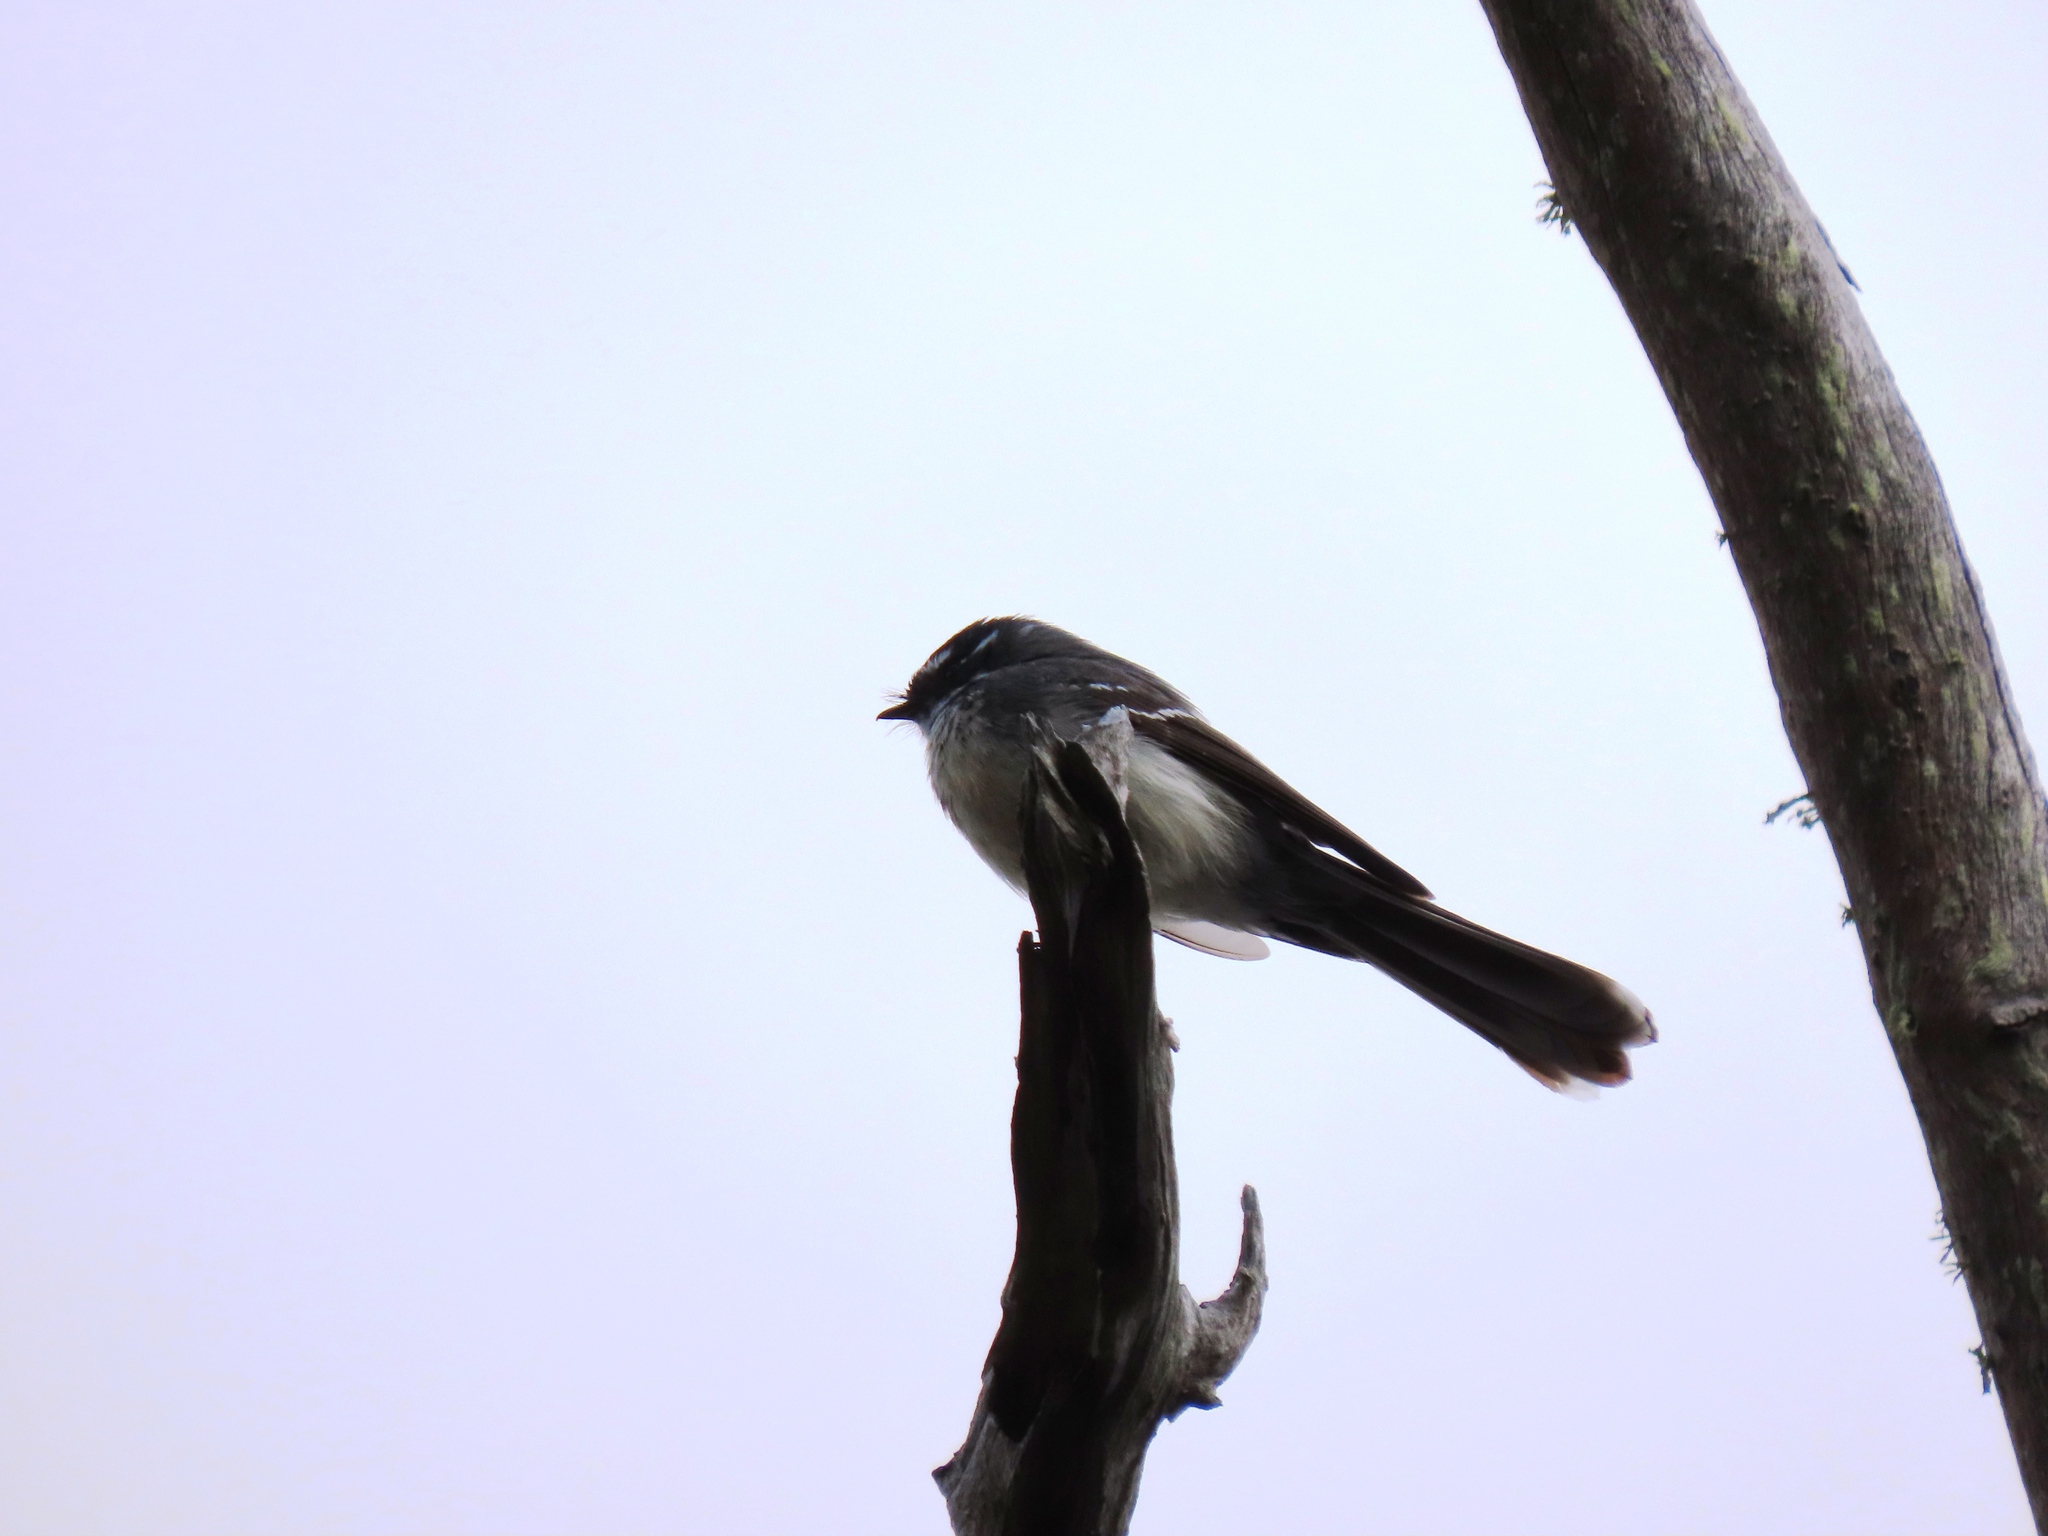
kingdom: Animalia
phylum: Chordata
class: Aves
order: Passeriformes
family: Rhipiduridae
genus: Rhipidura
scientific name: Rhipidura albiscapa
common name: Grey fantail
